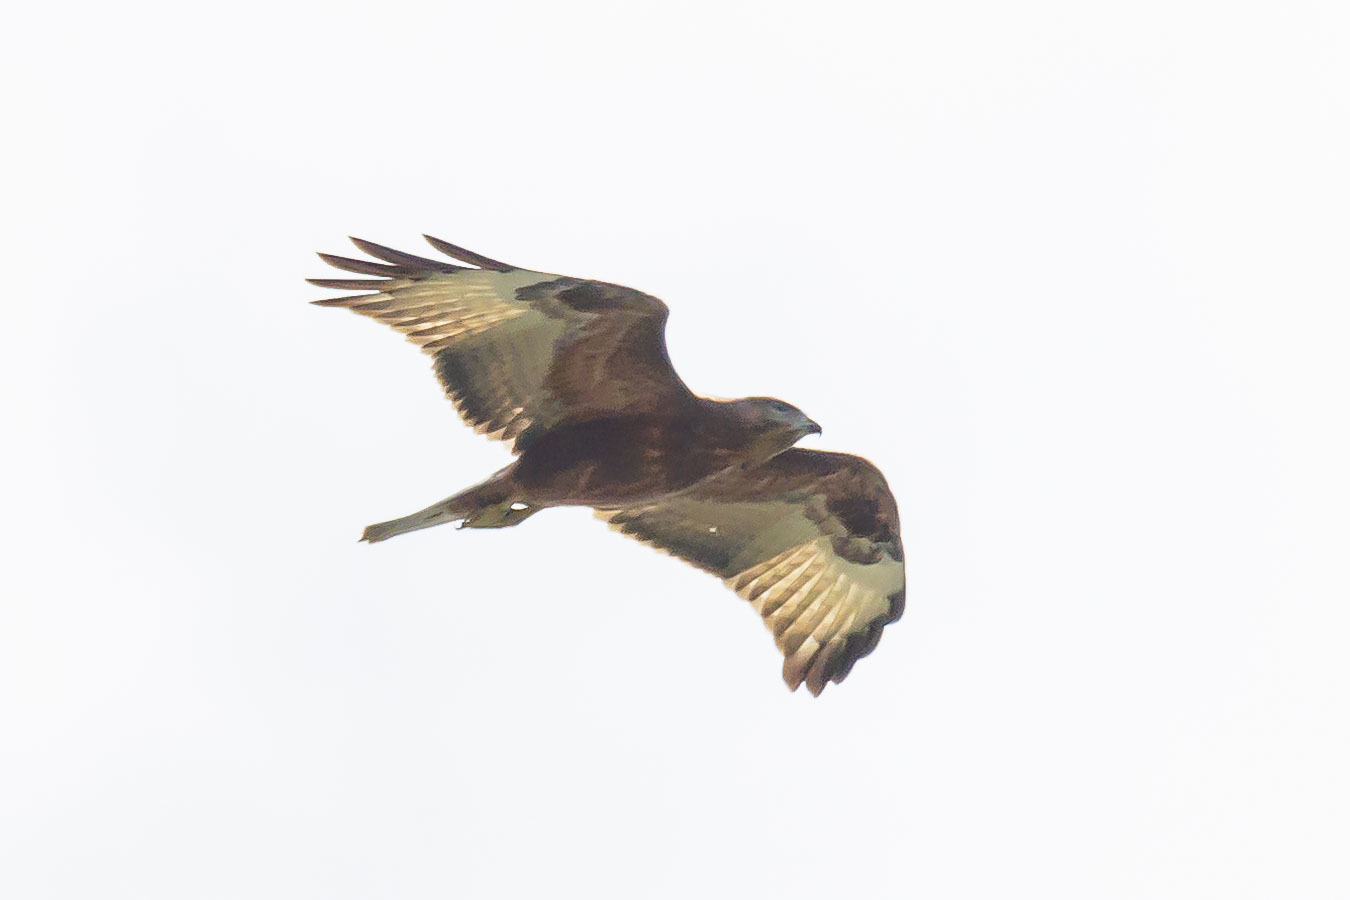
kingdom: Animalia
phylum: Chordata
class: Aves
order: Accipitriformes
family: Accipitridae
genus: Buteo
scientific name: Buteo buteo
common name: Common buzzard
